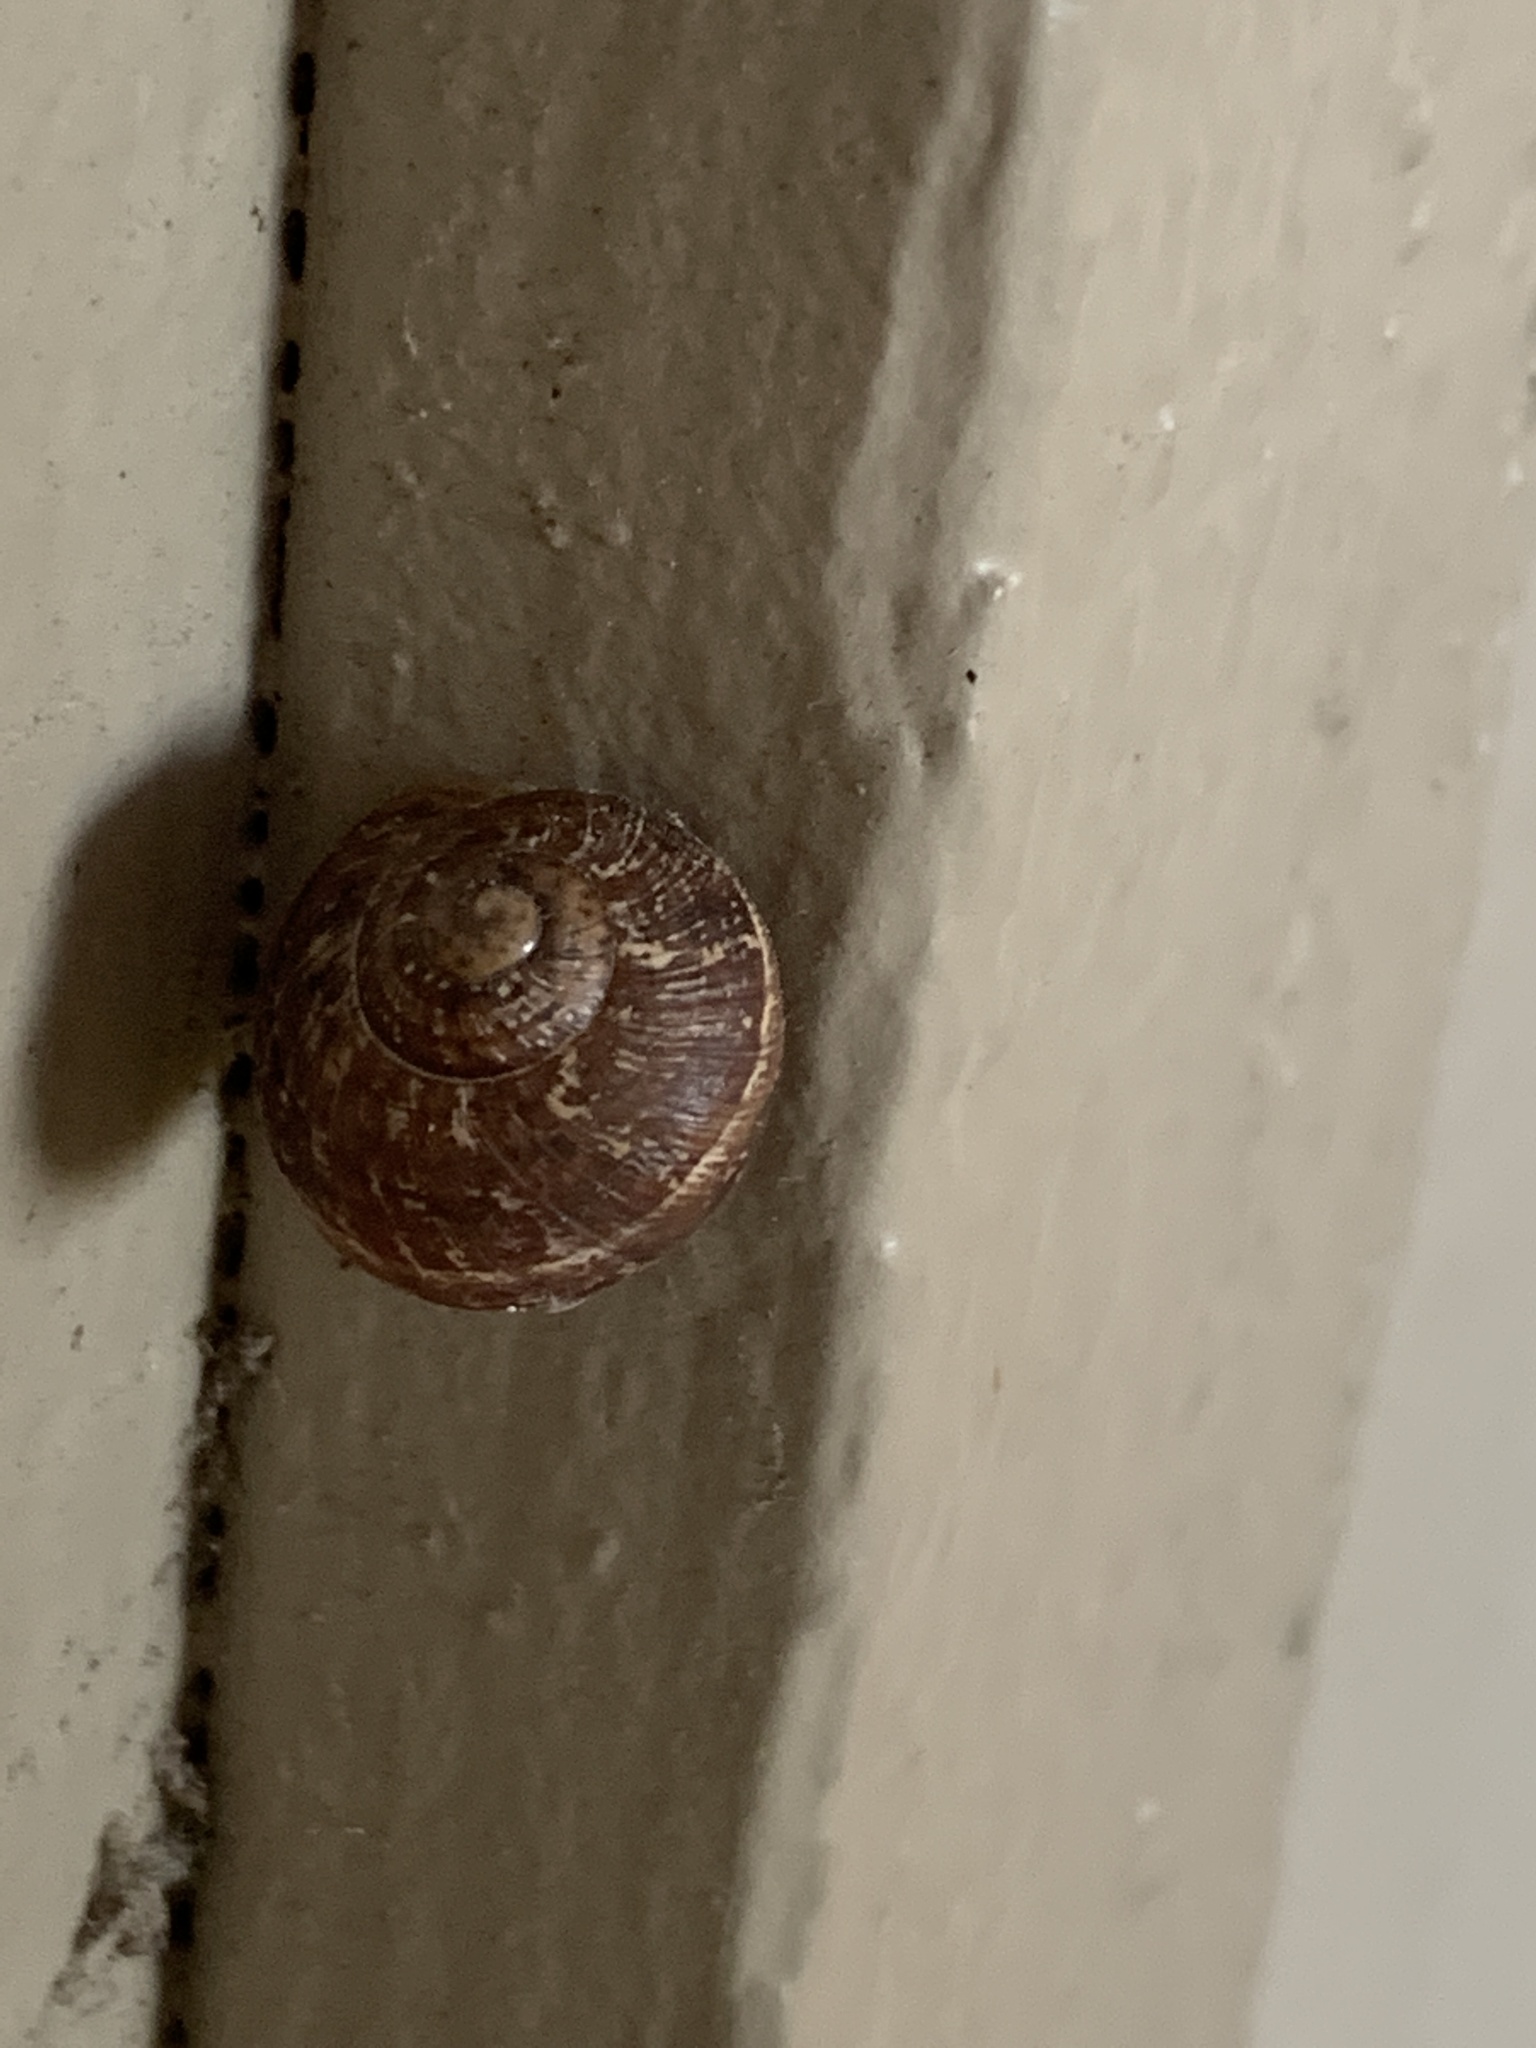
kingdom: Animalia
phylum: Mollusca
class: Gastropoda
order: Stylommatophora
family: Helicidae
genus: Cornu
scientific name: Cornu aspersum
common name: Brown garden snail
